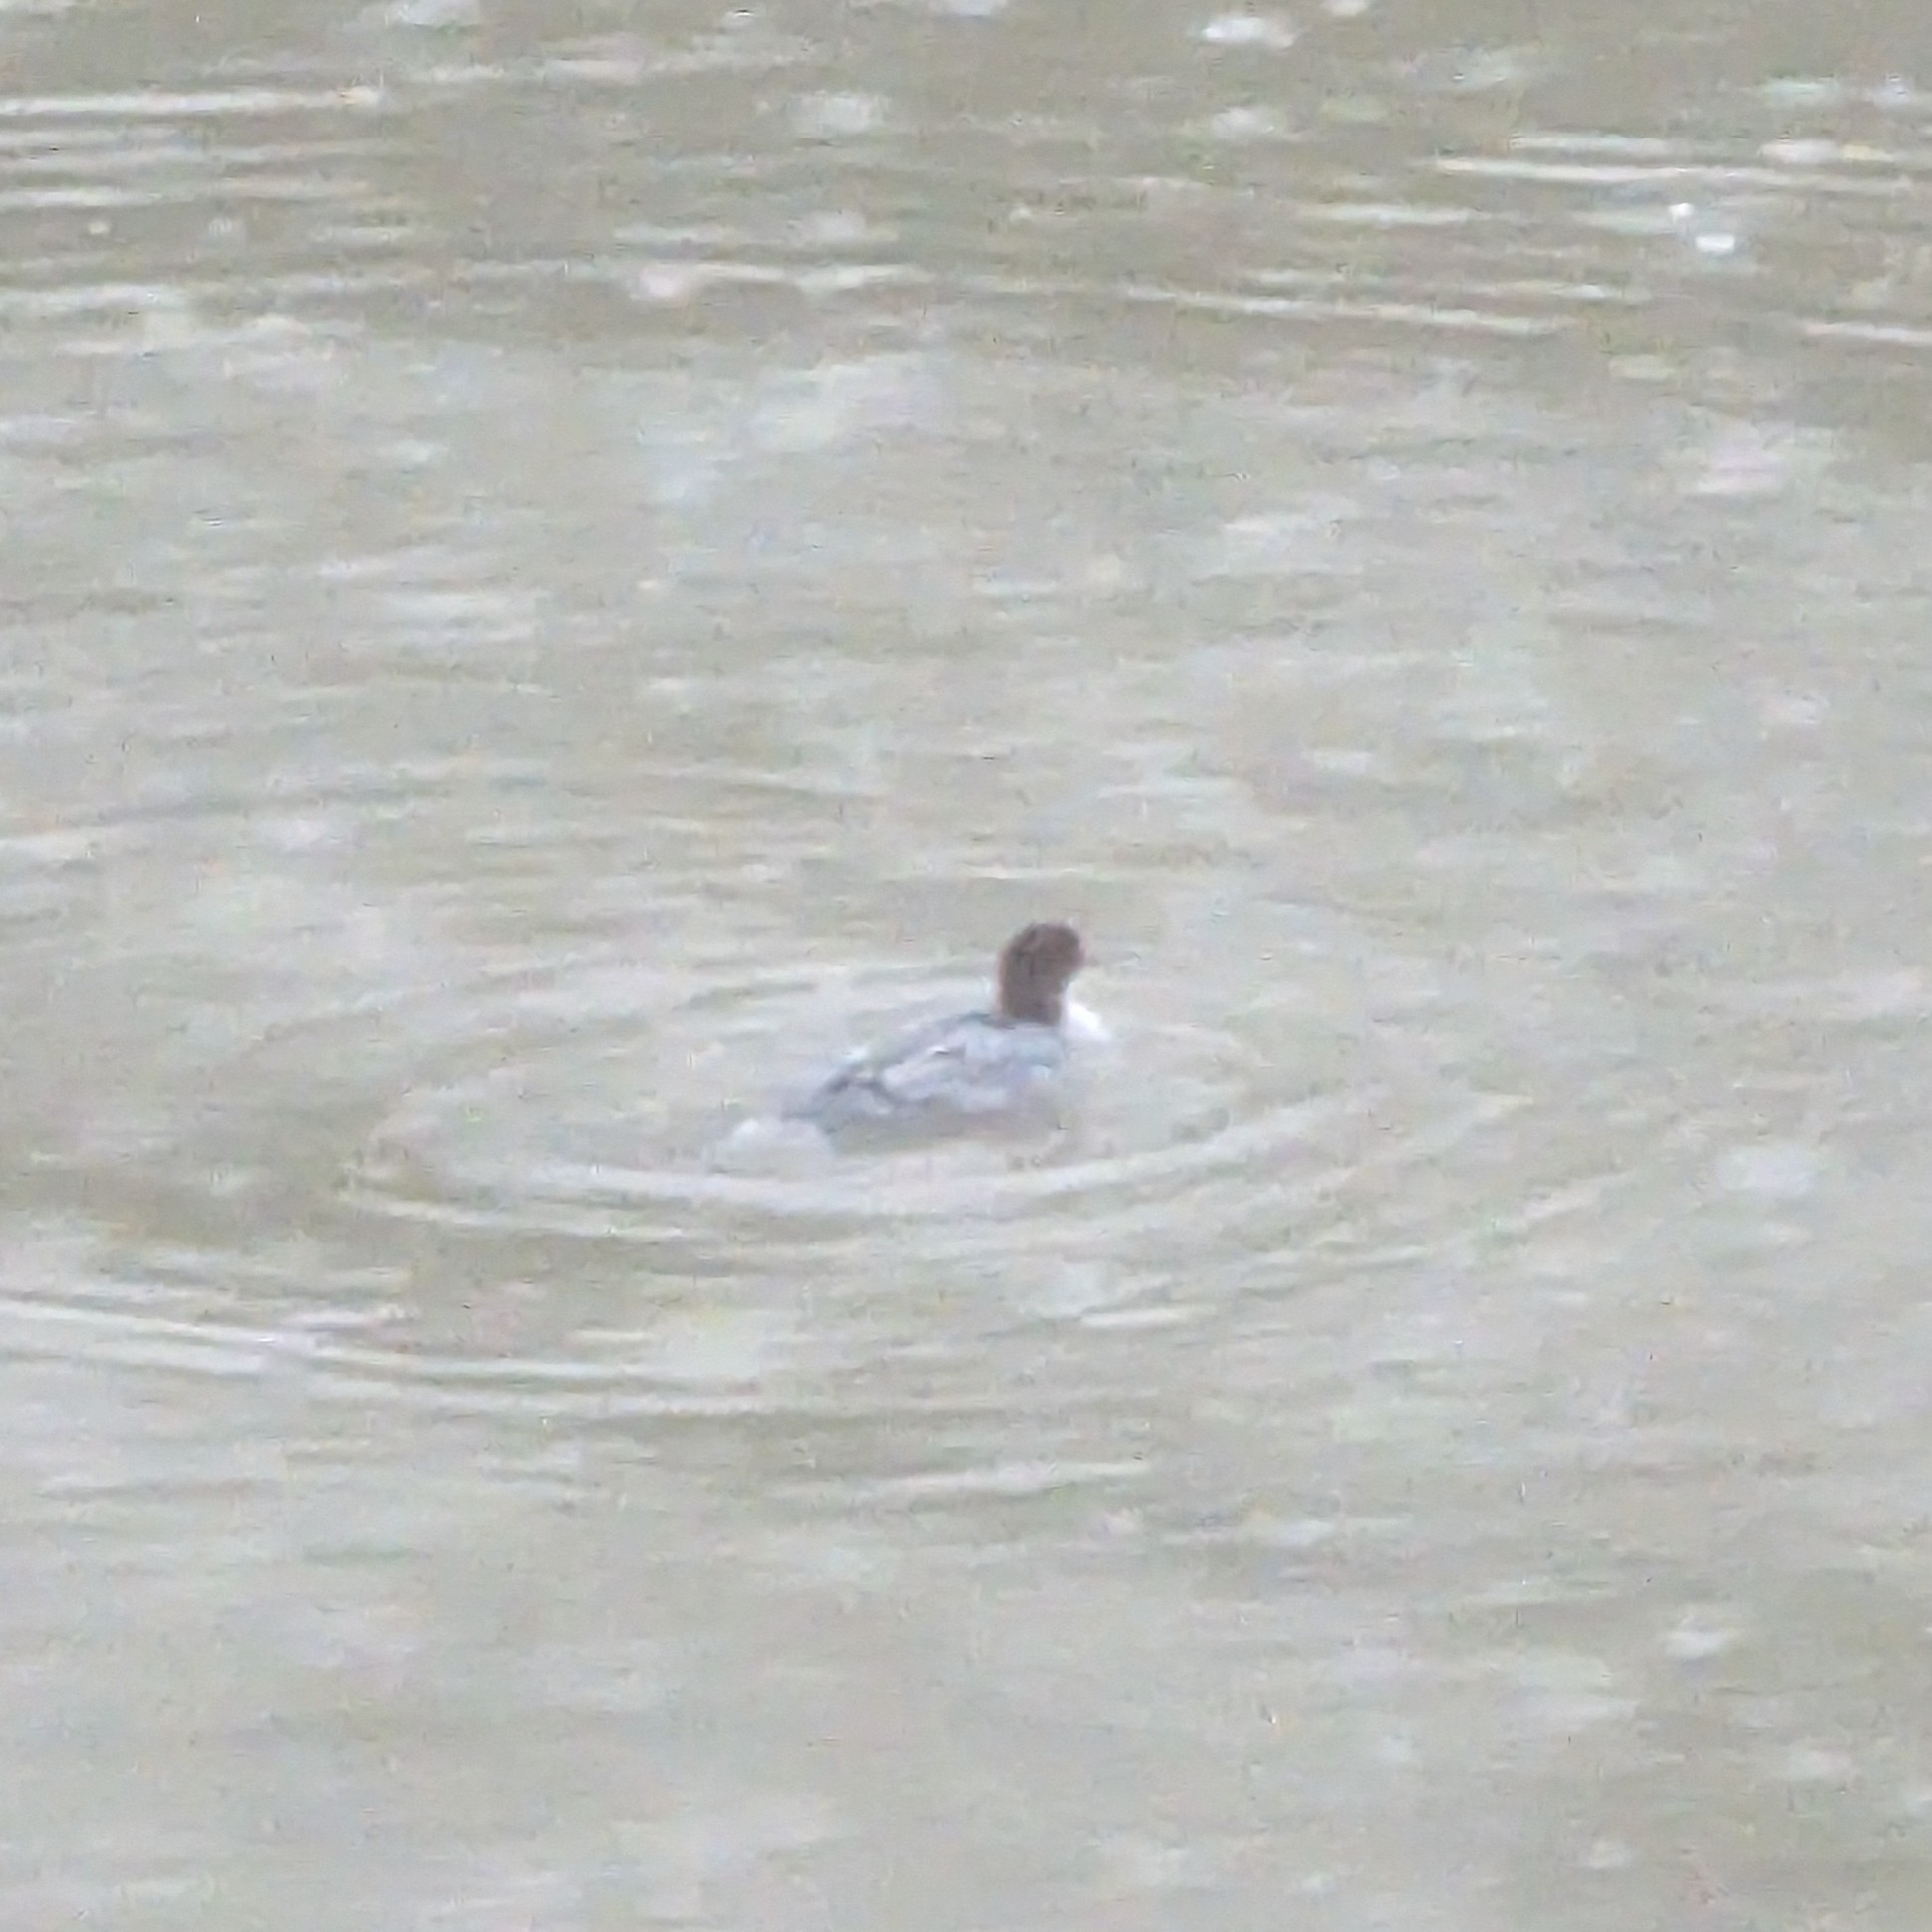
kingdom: Animalia
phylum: Chordata
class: Aves
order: Anseriformes
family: Anatidae
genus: Mergus
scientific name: Mergus merganser
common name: Common merganser
